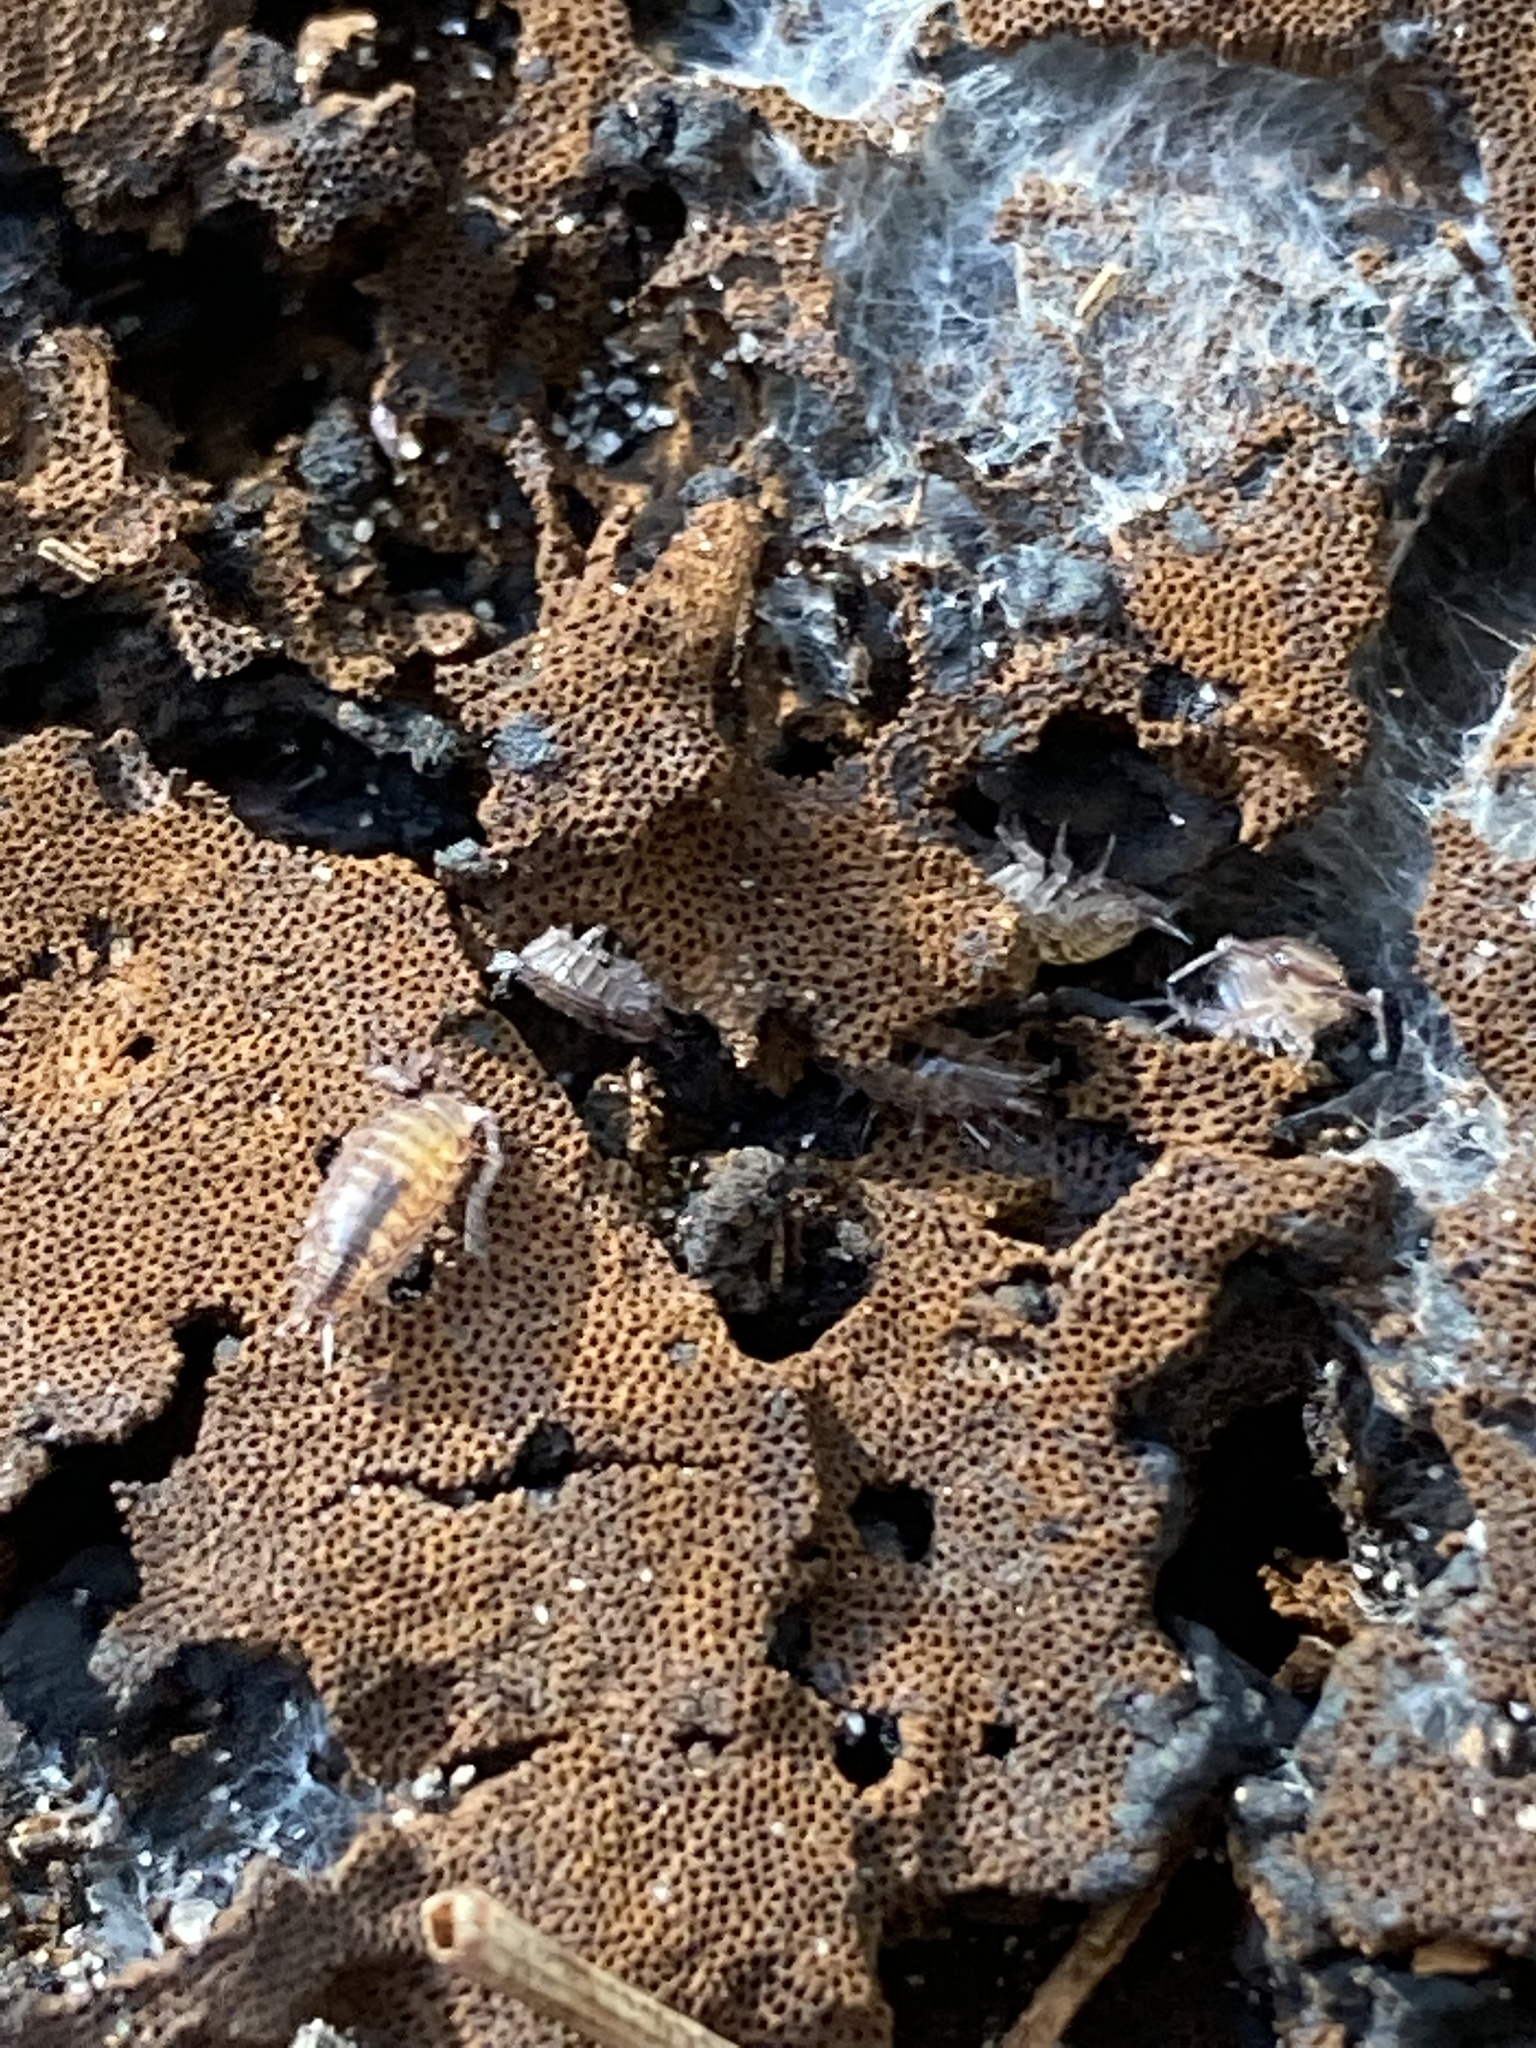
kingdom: Animalia
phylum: Arthropoda
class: Malacostraca
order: Isopoda
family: Philosciidae
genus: Atlantoscia
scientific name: Atlantoscia floridana
